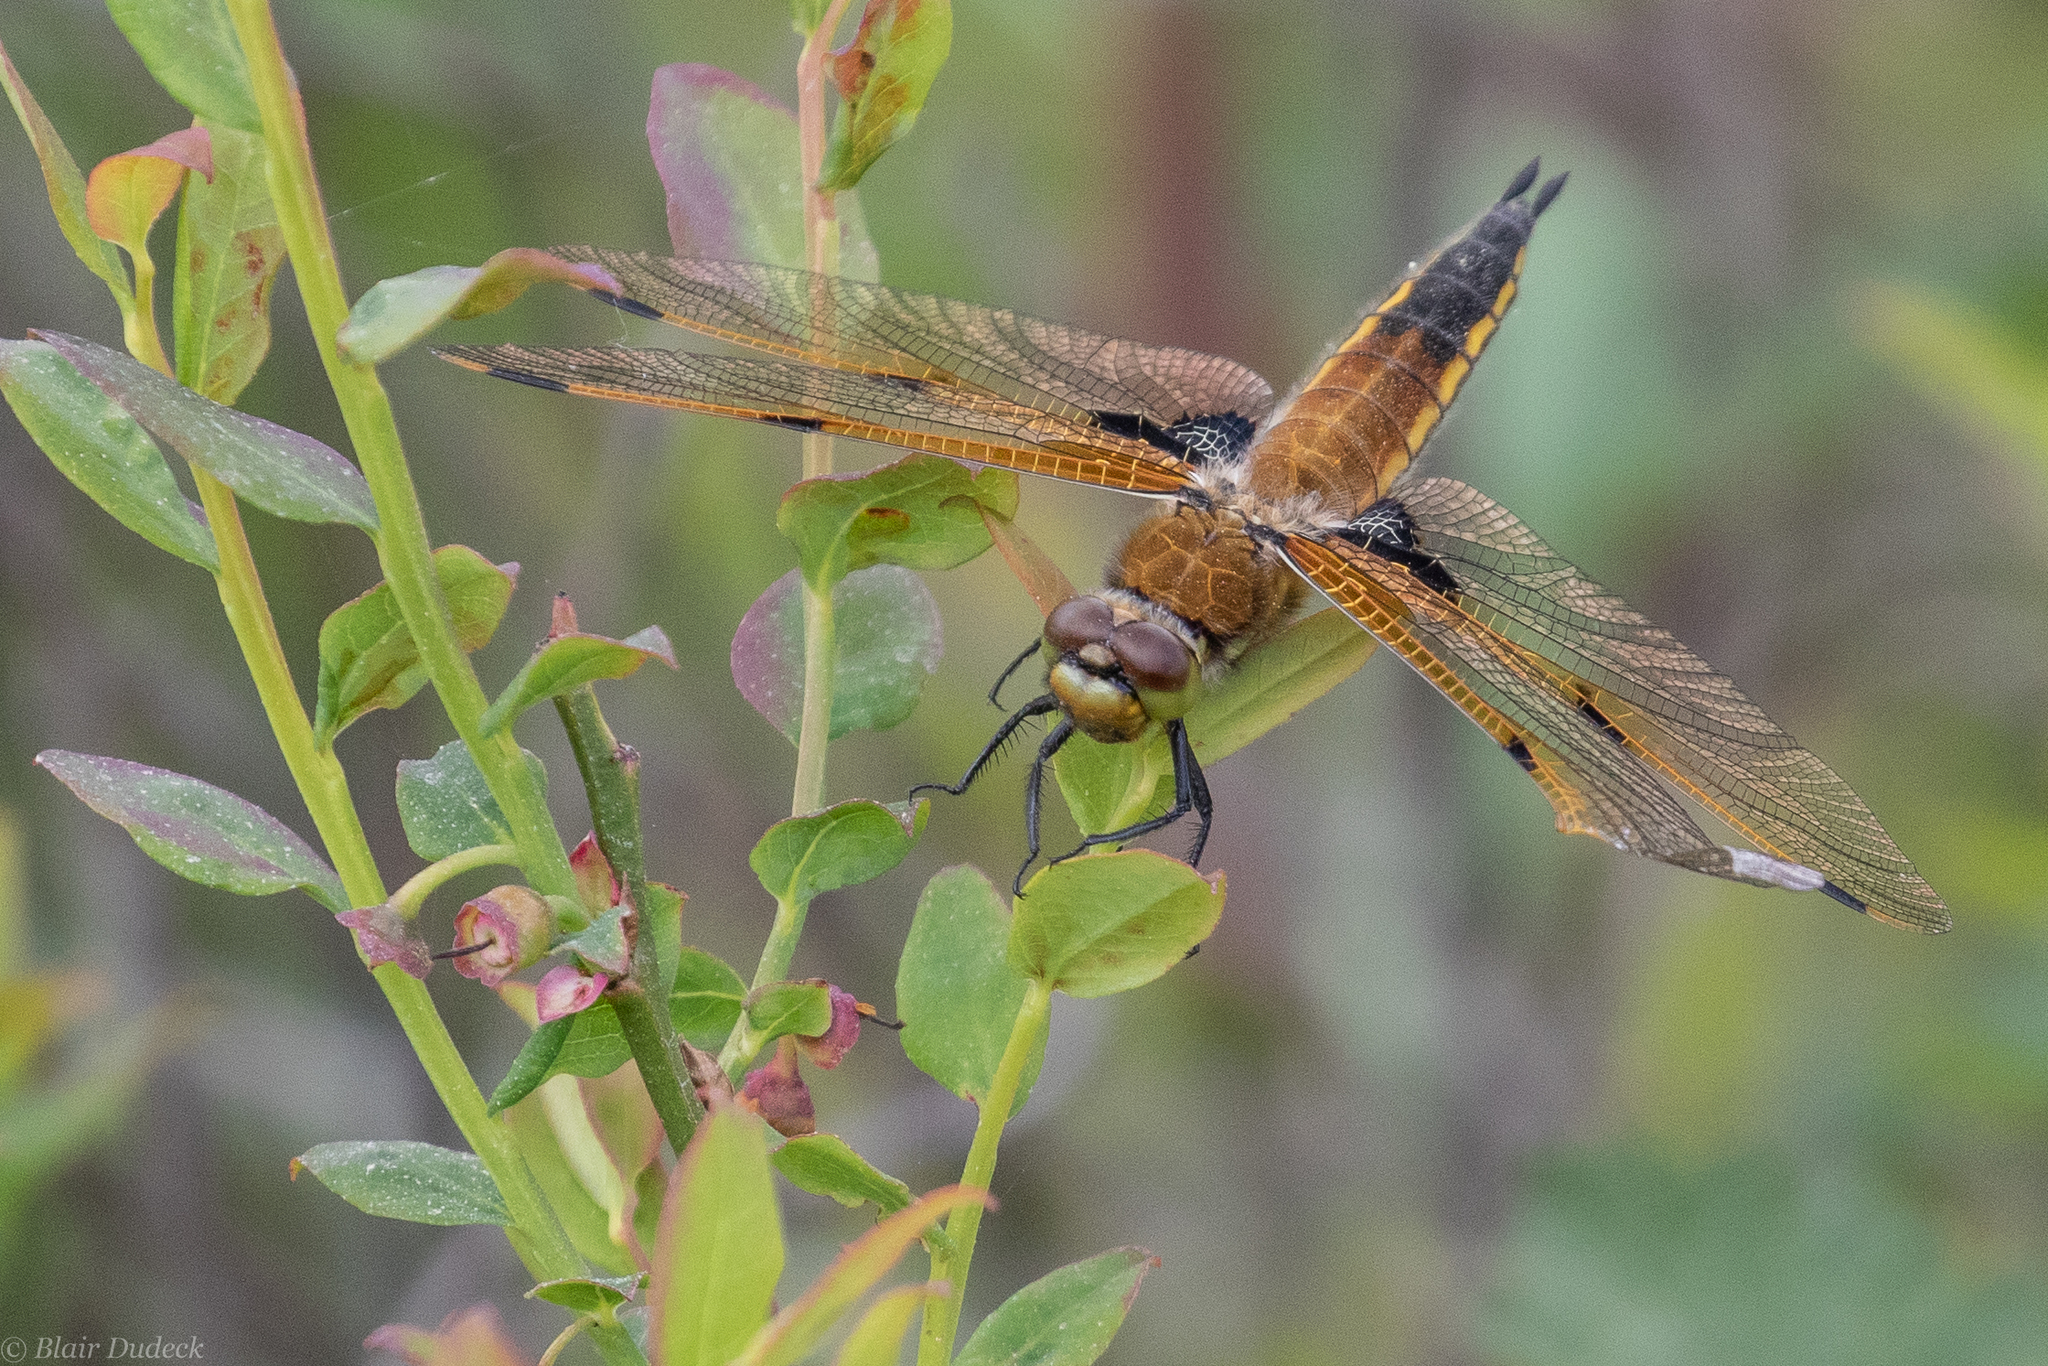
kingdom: Animalia
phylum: Arthropoda
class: Insecta
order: Odonata
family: Libellulidae
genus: Libellula
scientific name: Libellula quadrimaculata
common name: Four-spotted chaser
